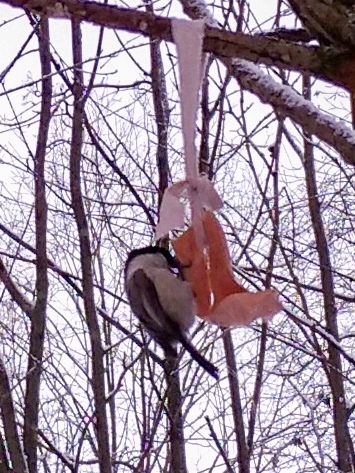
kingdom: Animalia
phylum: Chordata
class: Aves
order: Passeriformes
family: Paridae
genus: Poecile
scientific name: Poecile montanus
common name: Willow tit
